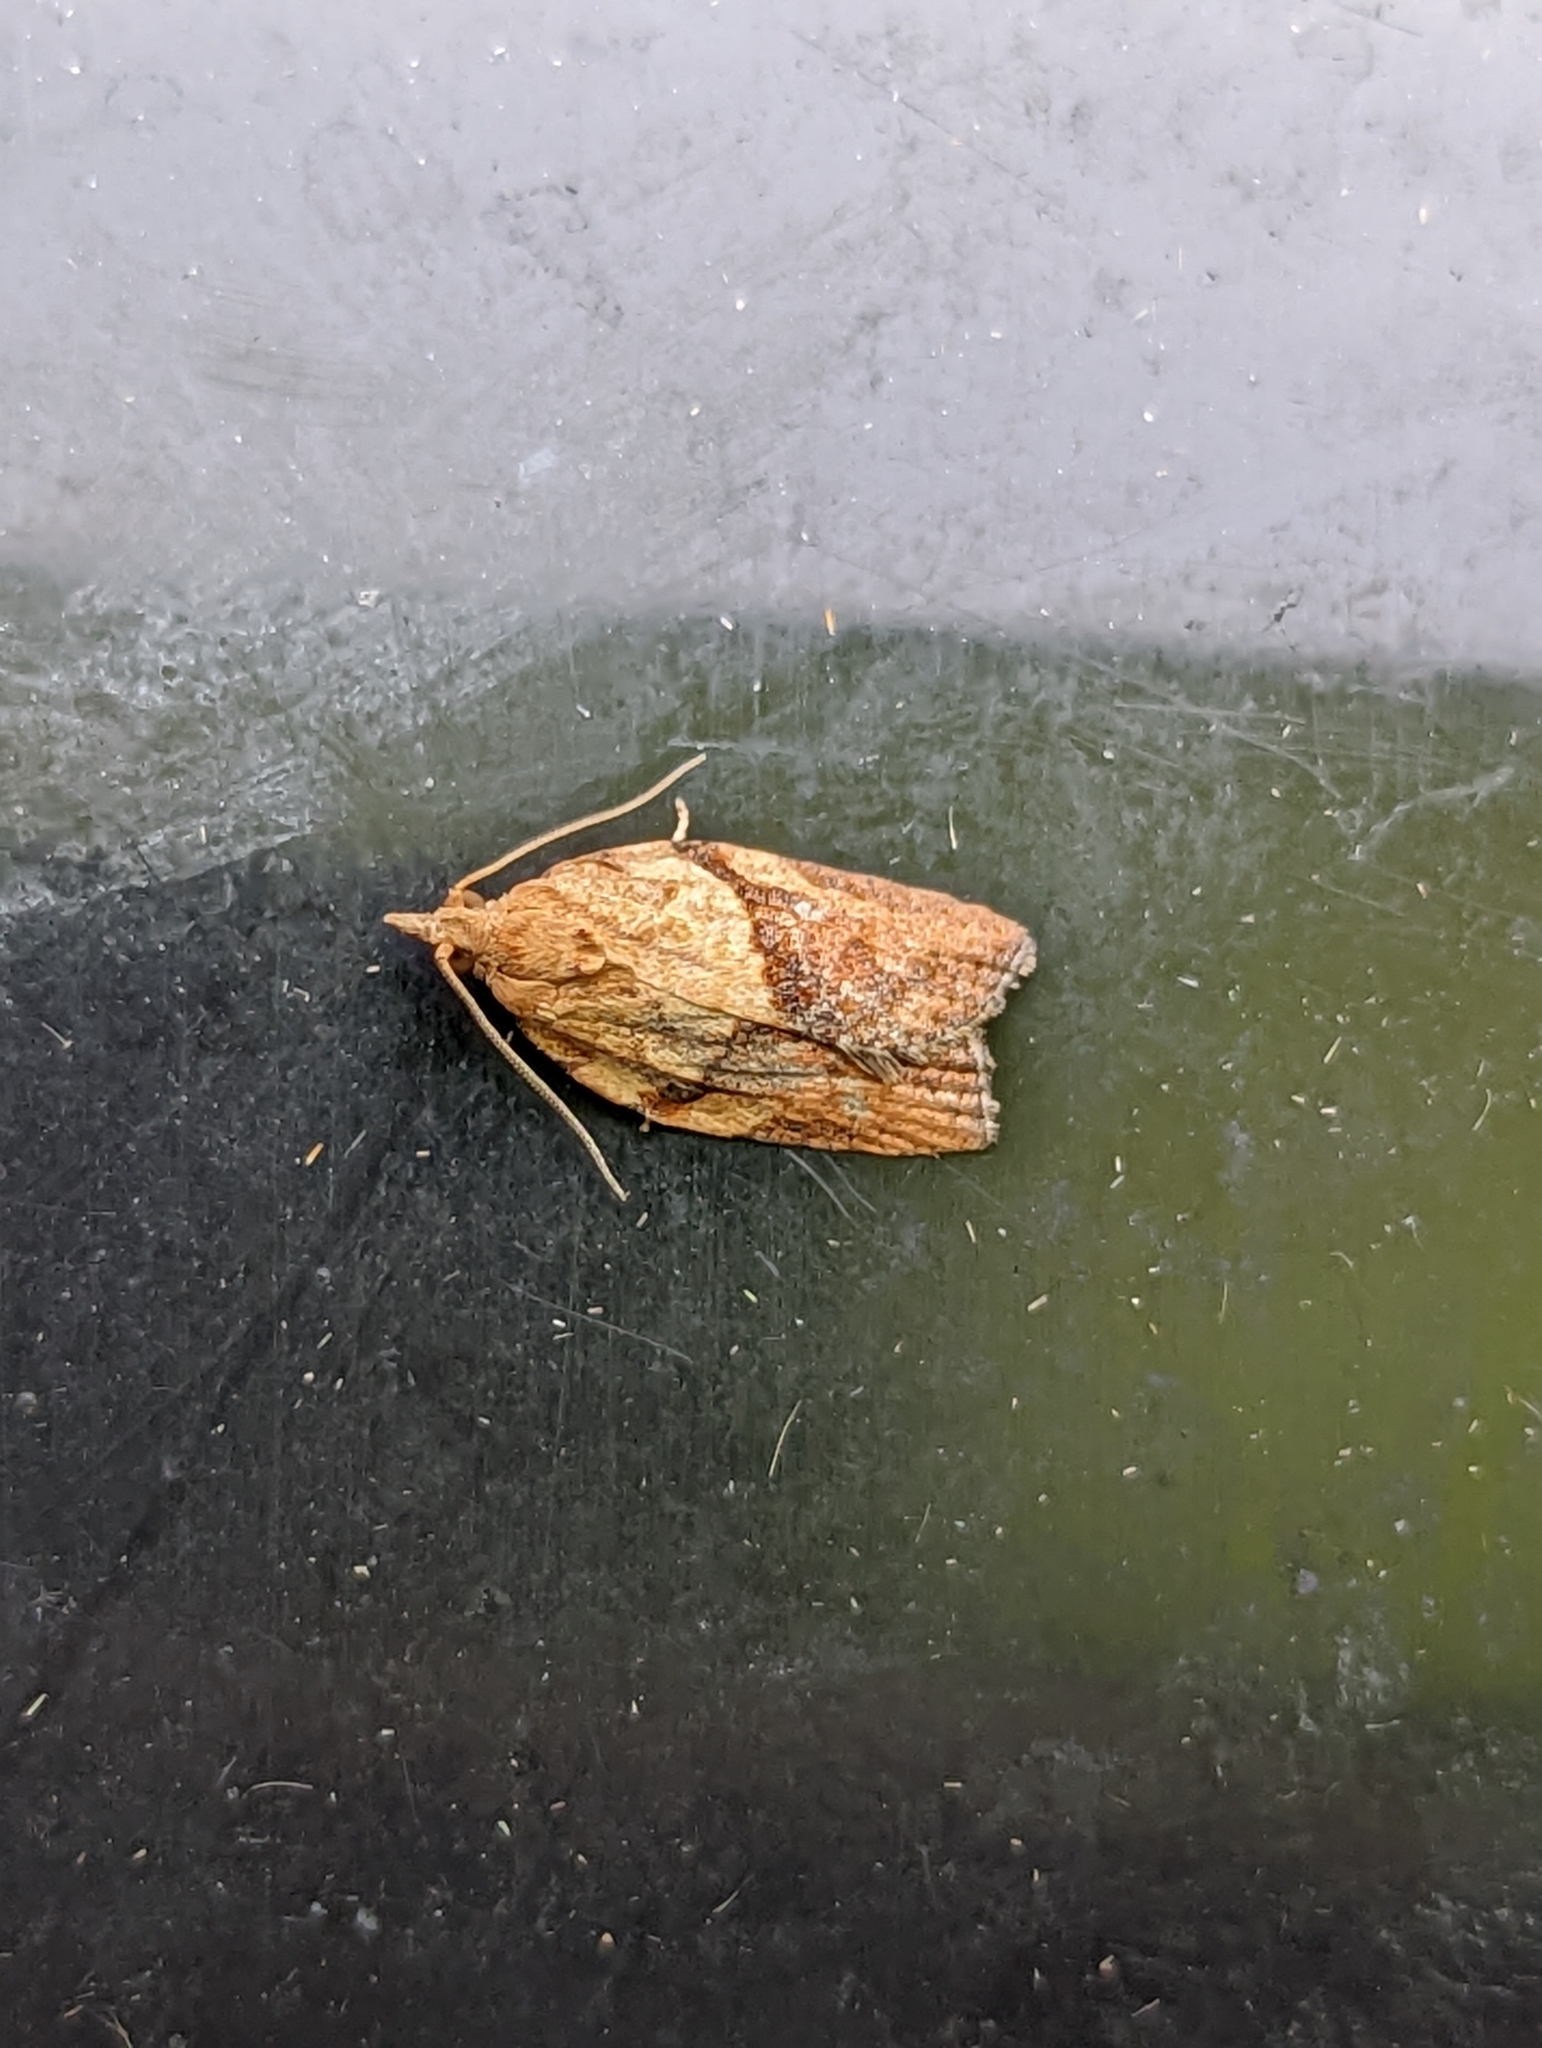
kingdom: Animalia
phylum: Arthropoda
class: Insecta
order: Lepidoptera
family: Tortricidae
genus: Epiphyas
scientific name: Epiphyas postvittana
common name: Light brown apple moth
